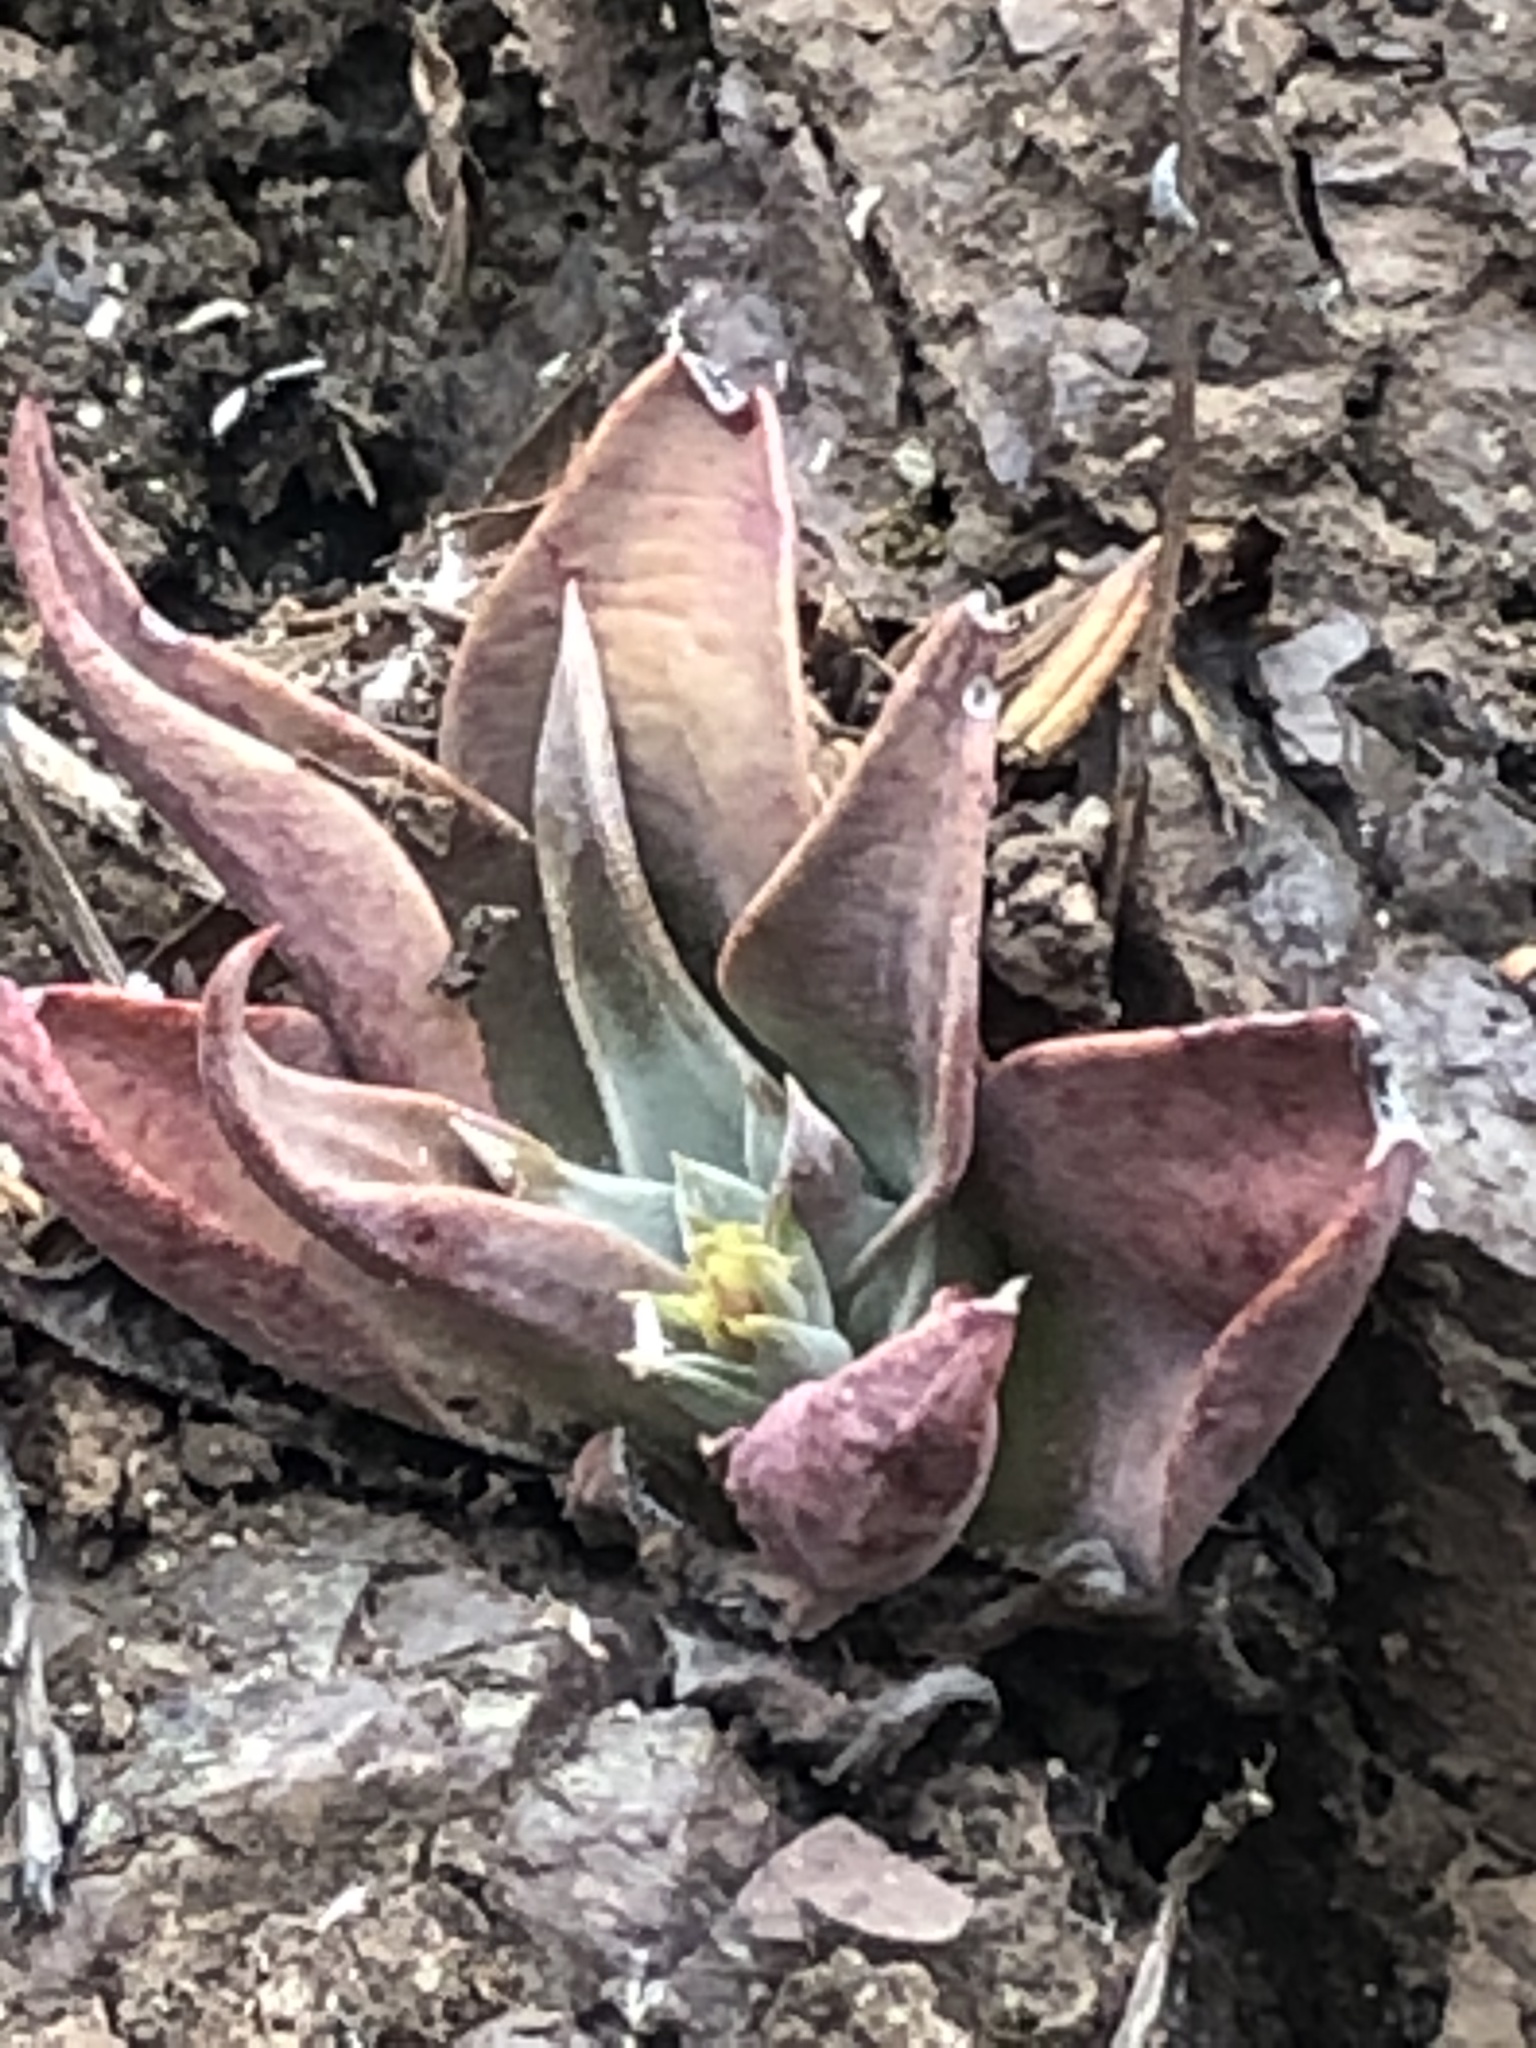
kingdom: Plantae
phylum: Tracheophyta
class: Magnoliopsida
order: Saxifragales
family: Crassulaceae
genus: Dudleya
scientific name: Dudleya cymosa
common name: Canyon dudleya
